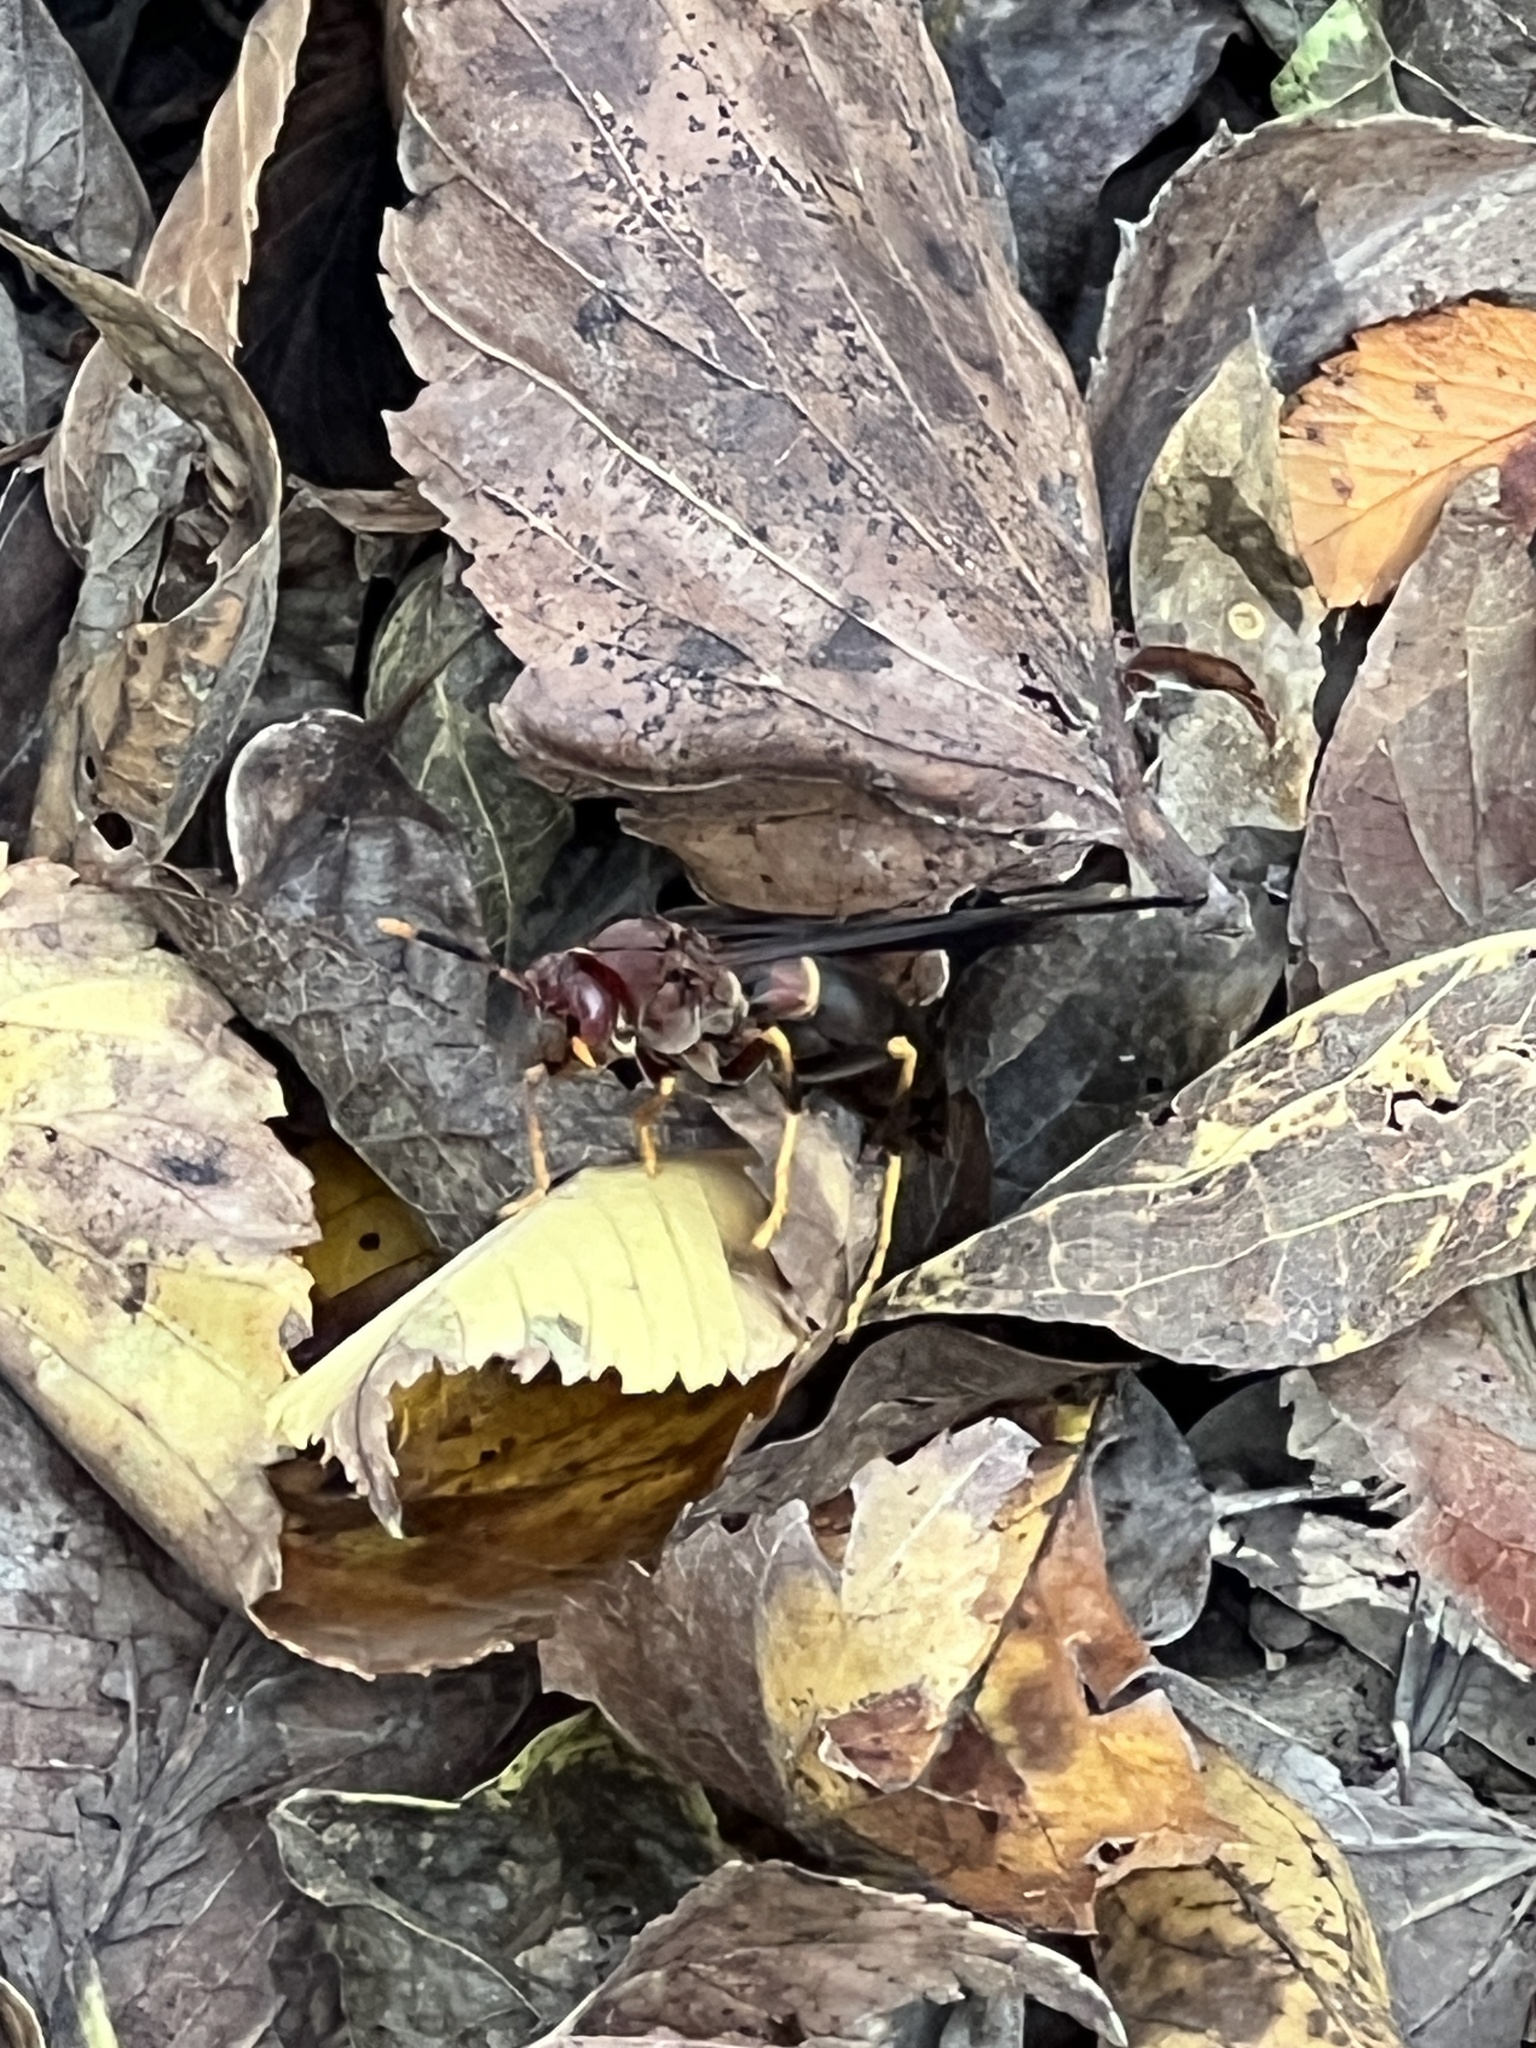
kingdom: Animalia
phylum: Arthropoda
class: Insecta
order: Hymenoptera
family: Eumenidae
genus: Polistes
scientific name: Polistes annularis
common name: Ringed paper wasp
